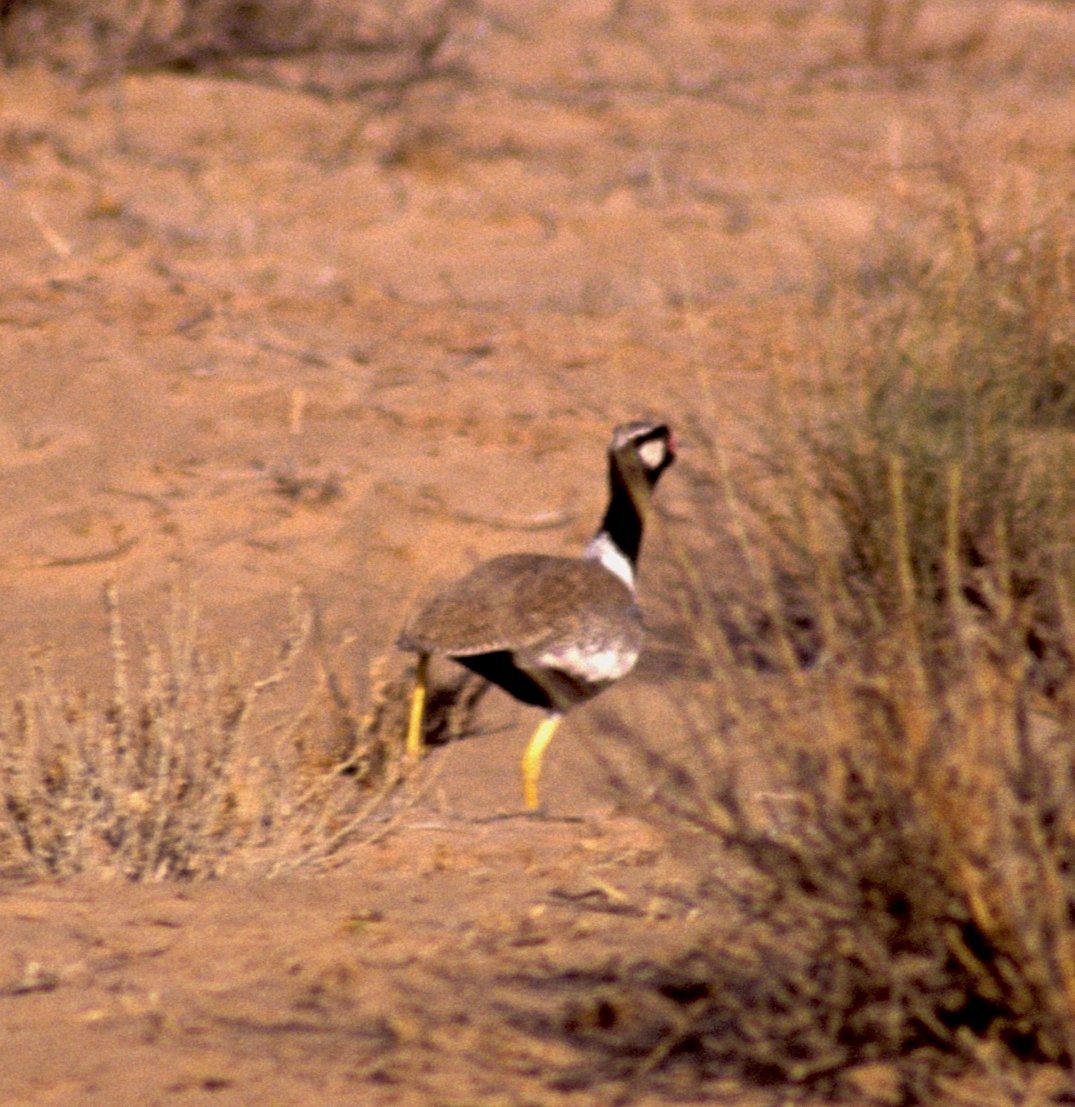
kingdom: Animalia
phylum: Chordata
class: Aves
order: Otidiformes
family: Otididae
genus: Afrotis
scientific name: Afrotis afraoides
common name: Northern black korhaan
